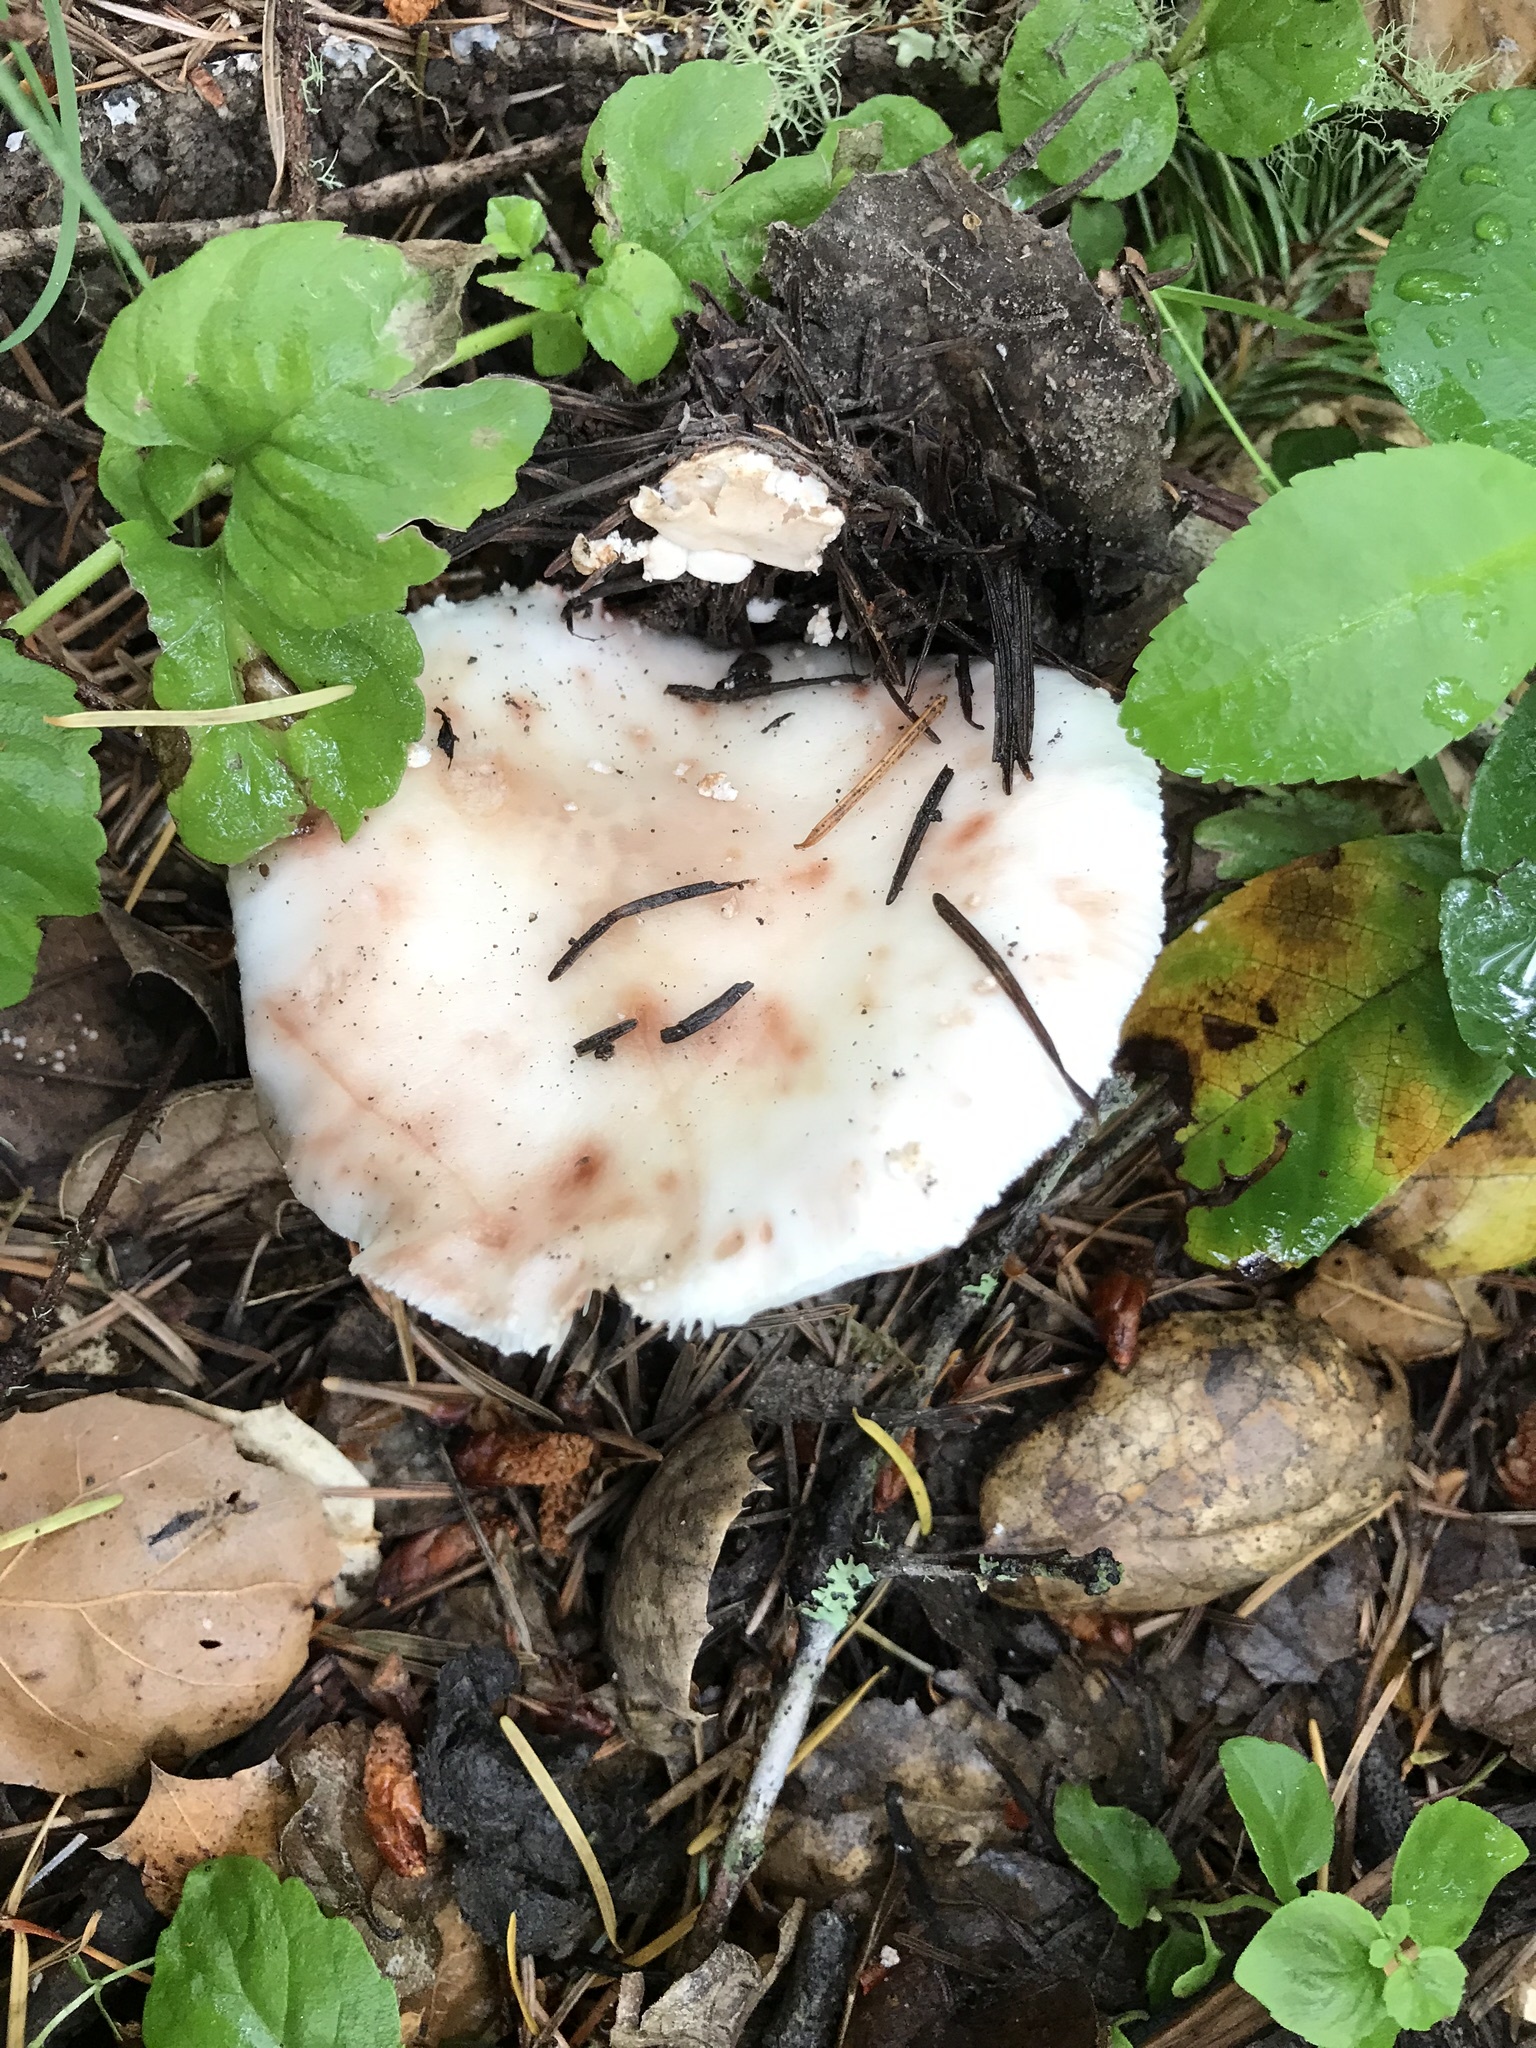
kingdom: Fungi
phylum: Basidiomycota
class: Agaricomycetes
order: Agaricales
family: Amanitaceae
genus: Amanita
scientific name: Amanita novinupta
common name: Blushing bride
